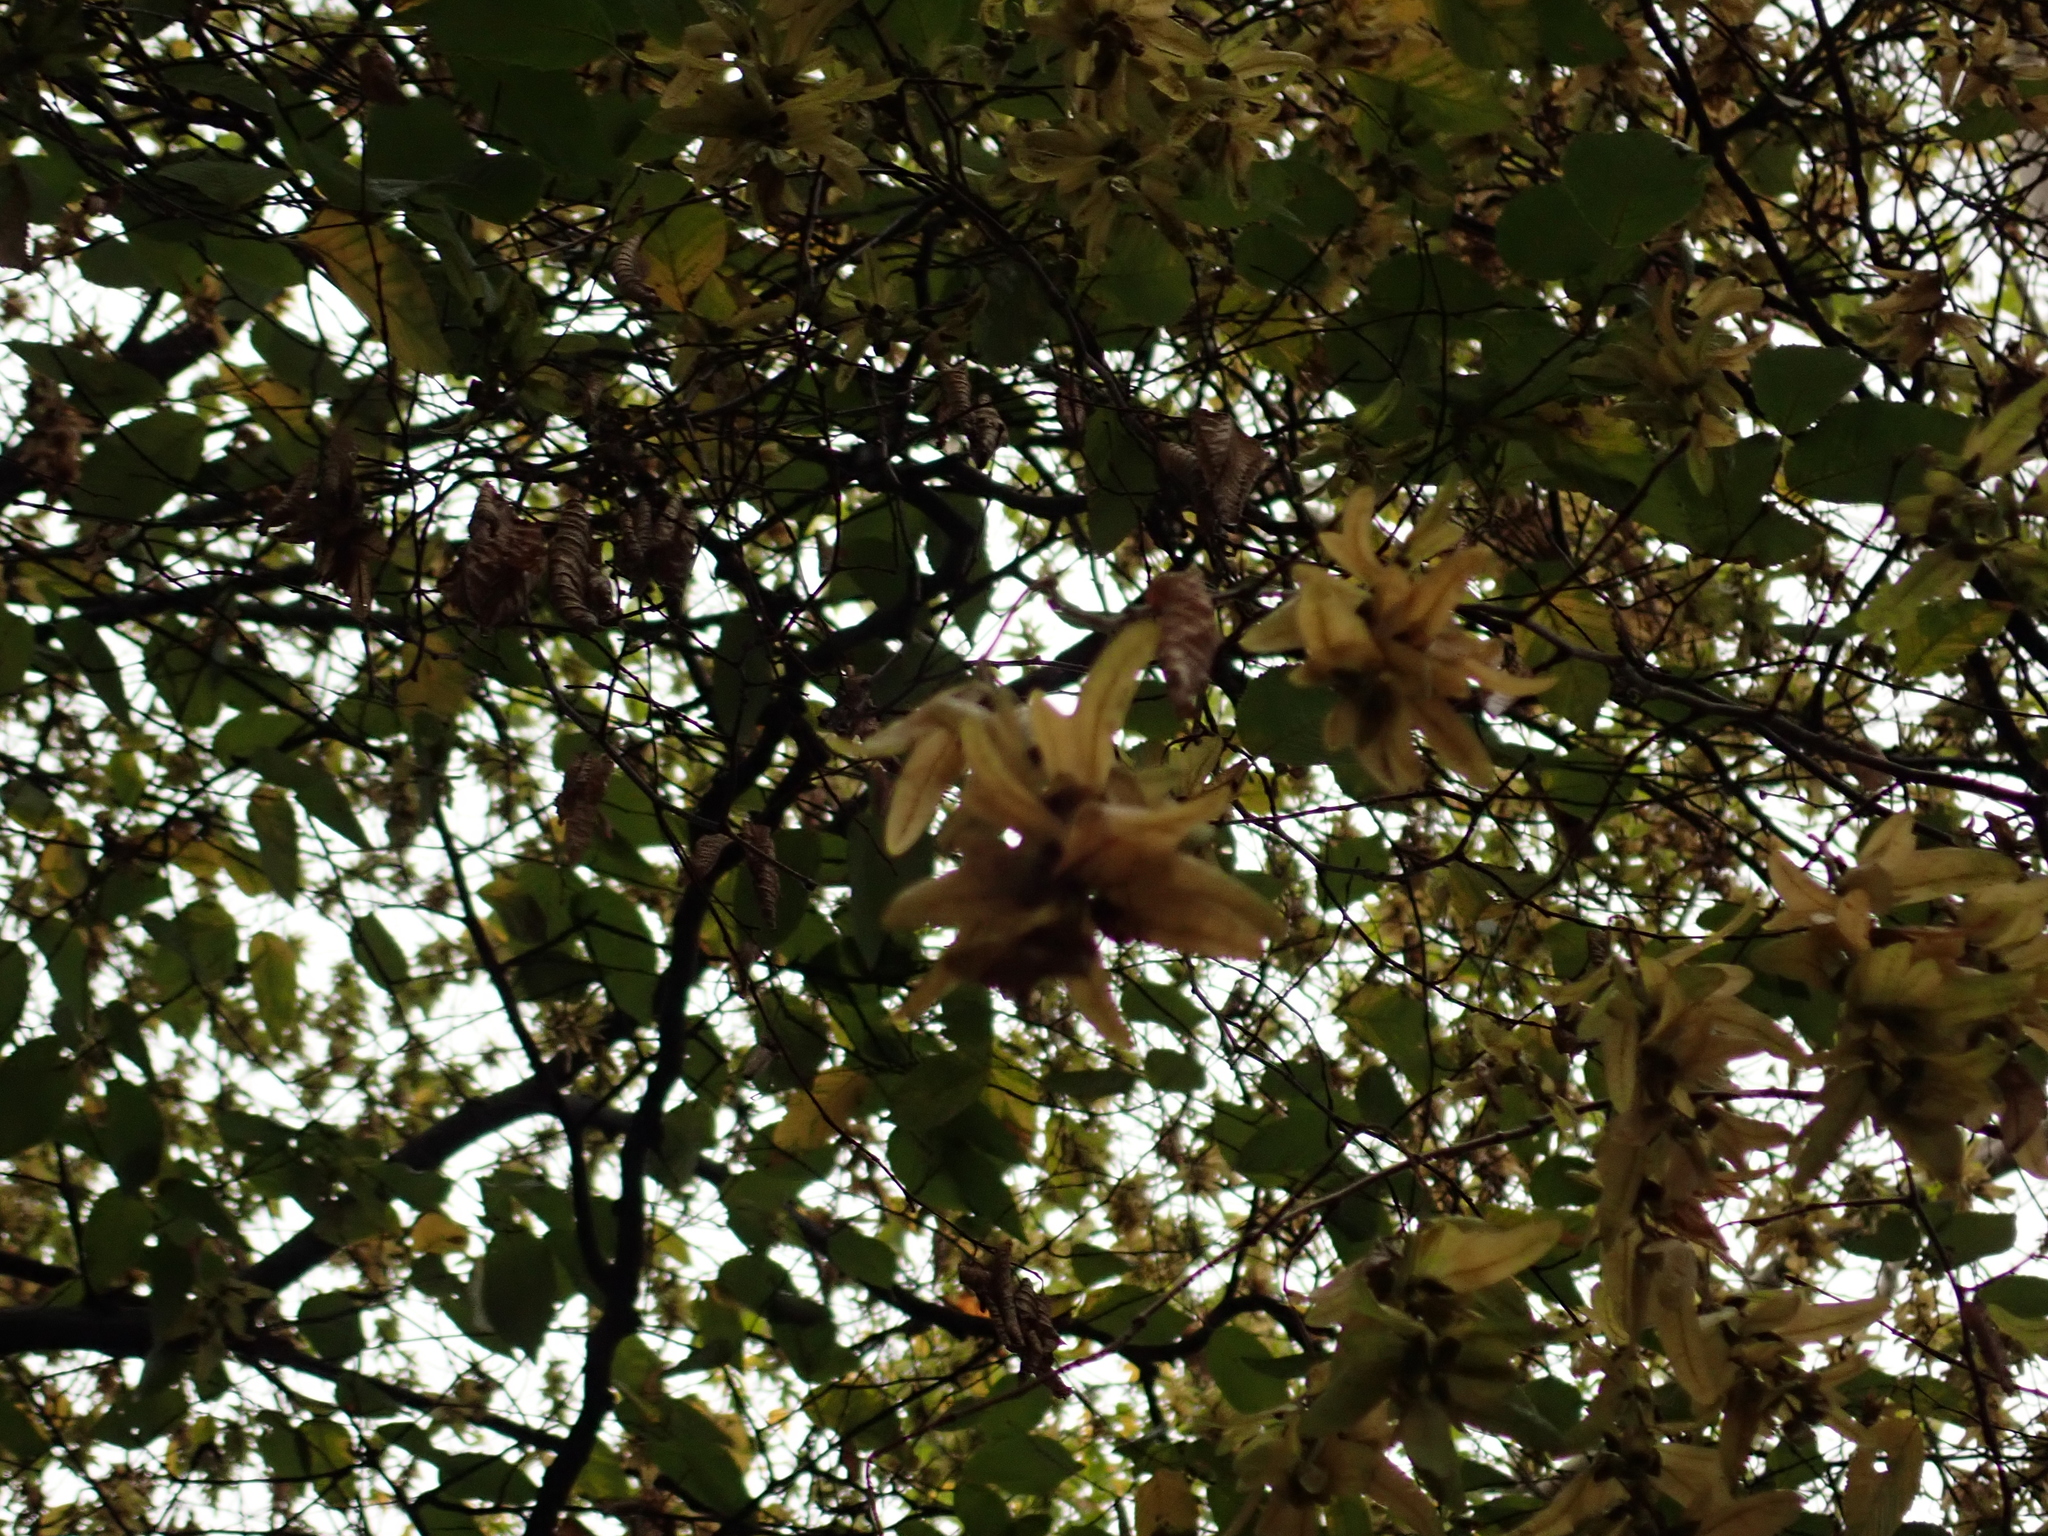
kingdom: Plantae
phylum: Tracheophyta
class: Magnoliopsida
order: Fagales
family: Betulaceae
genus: Carpinus
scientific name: Carpinus betulus
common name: Hornbeam
